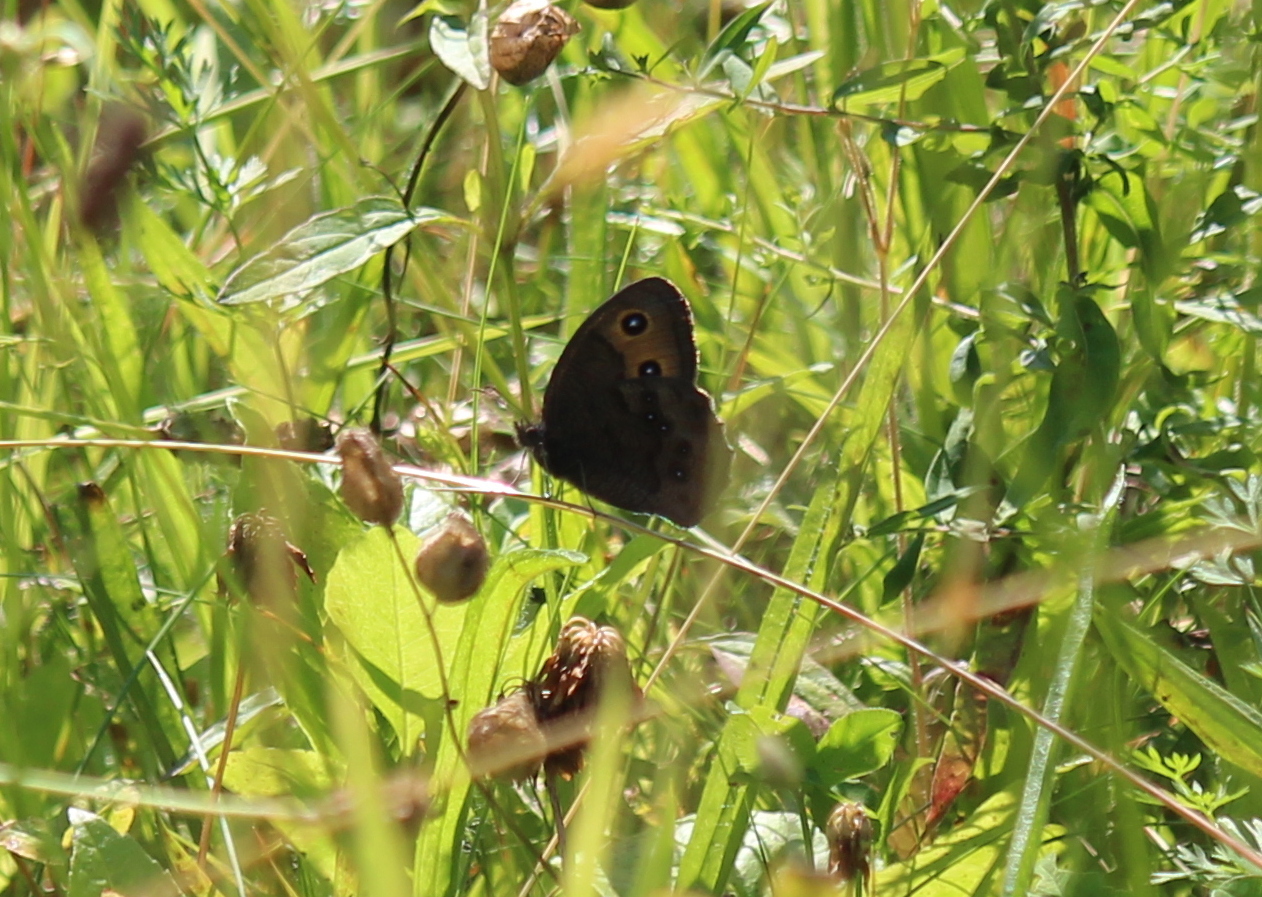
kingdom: Animalia
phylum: Arthropoda
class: Insecta
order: Lepidoptera
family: Nymphalidae
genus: Cercyonis
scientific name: Cercyonis pegala
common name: Common wood-nymph
